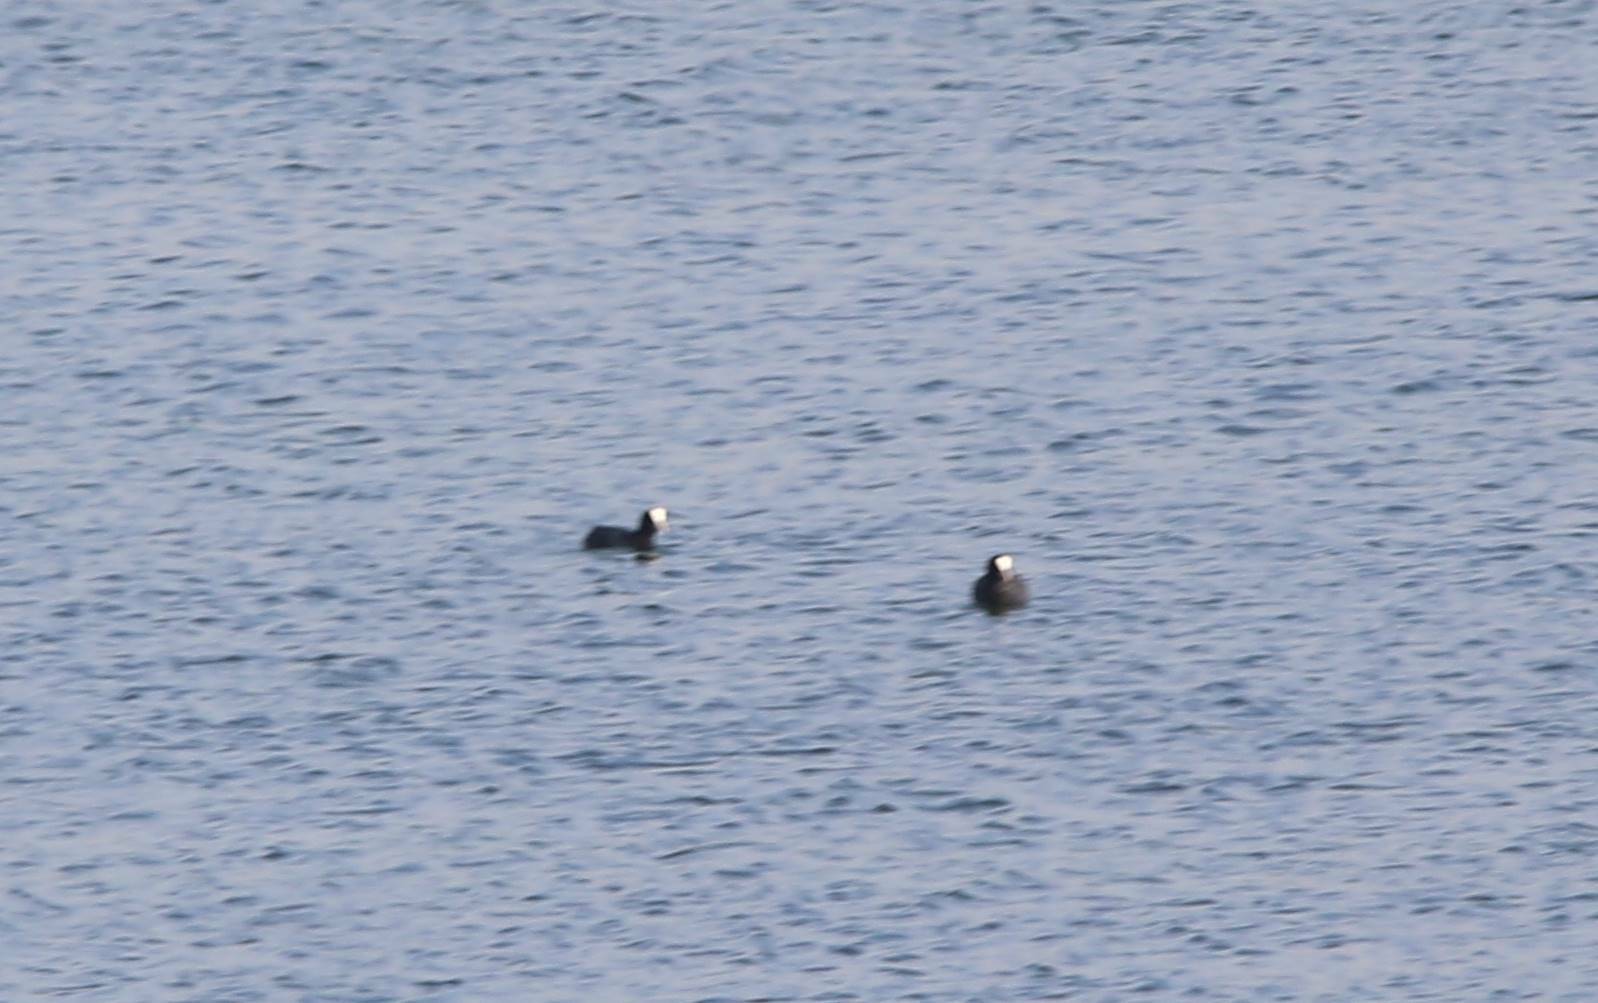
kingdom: Animalia
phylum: Chordata
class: Aves
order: Gruiformes
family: Rallidae
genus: Fulica
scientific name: Fulica atra
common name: Eurasian coot
